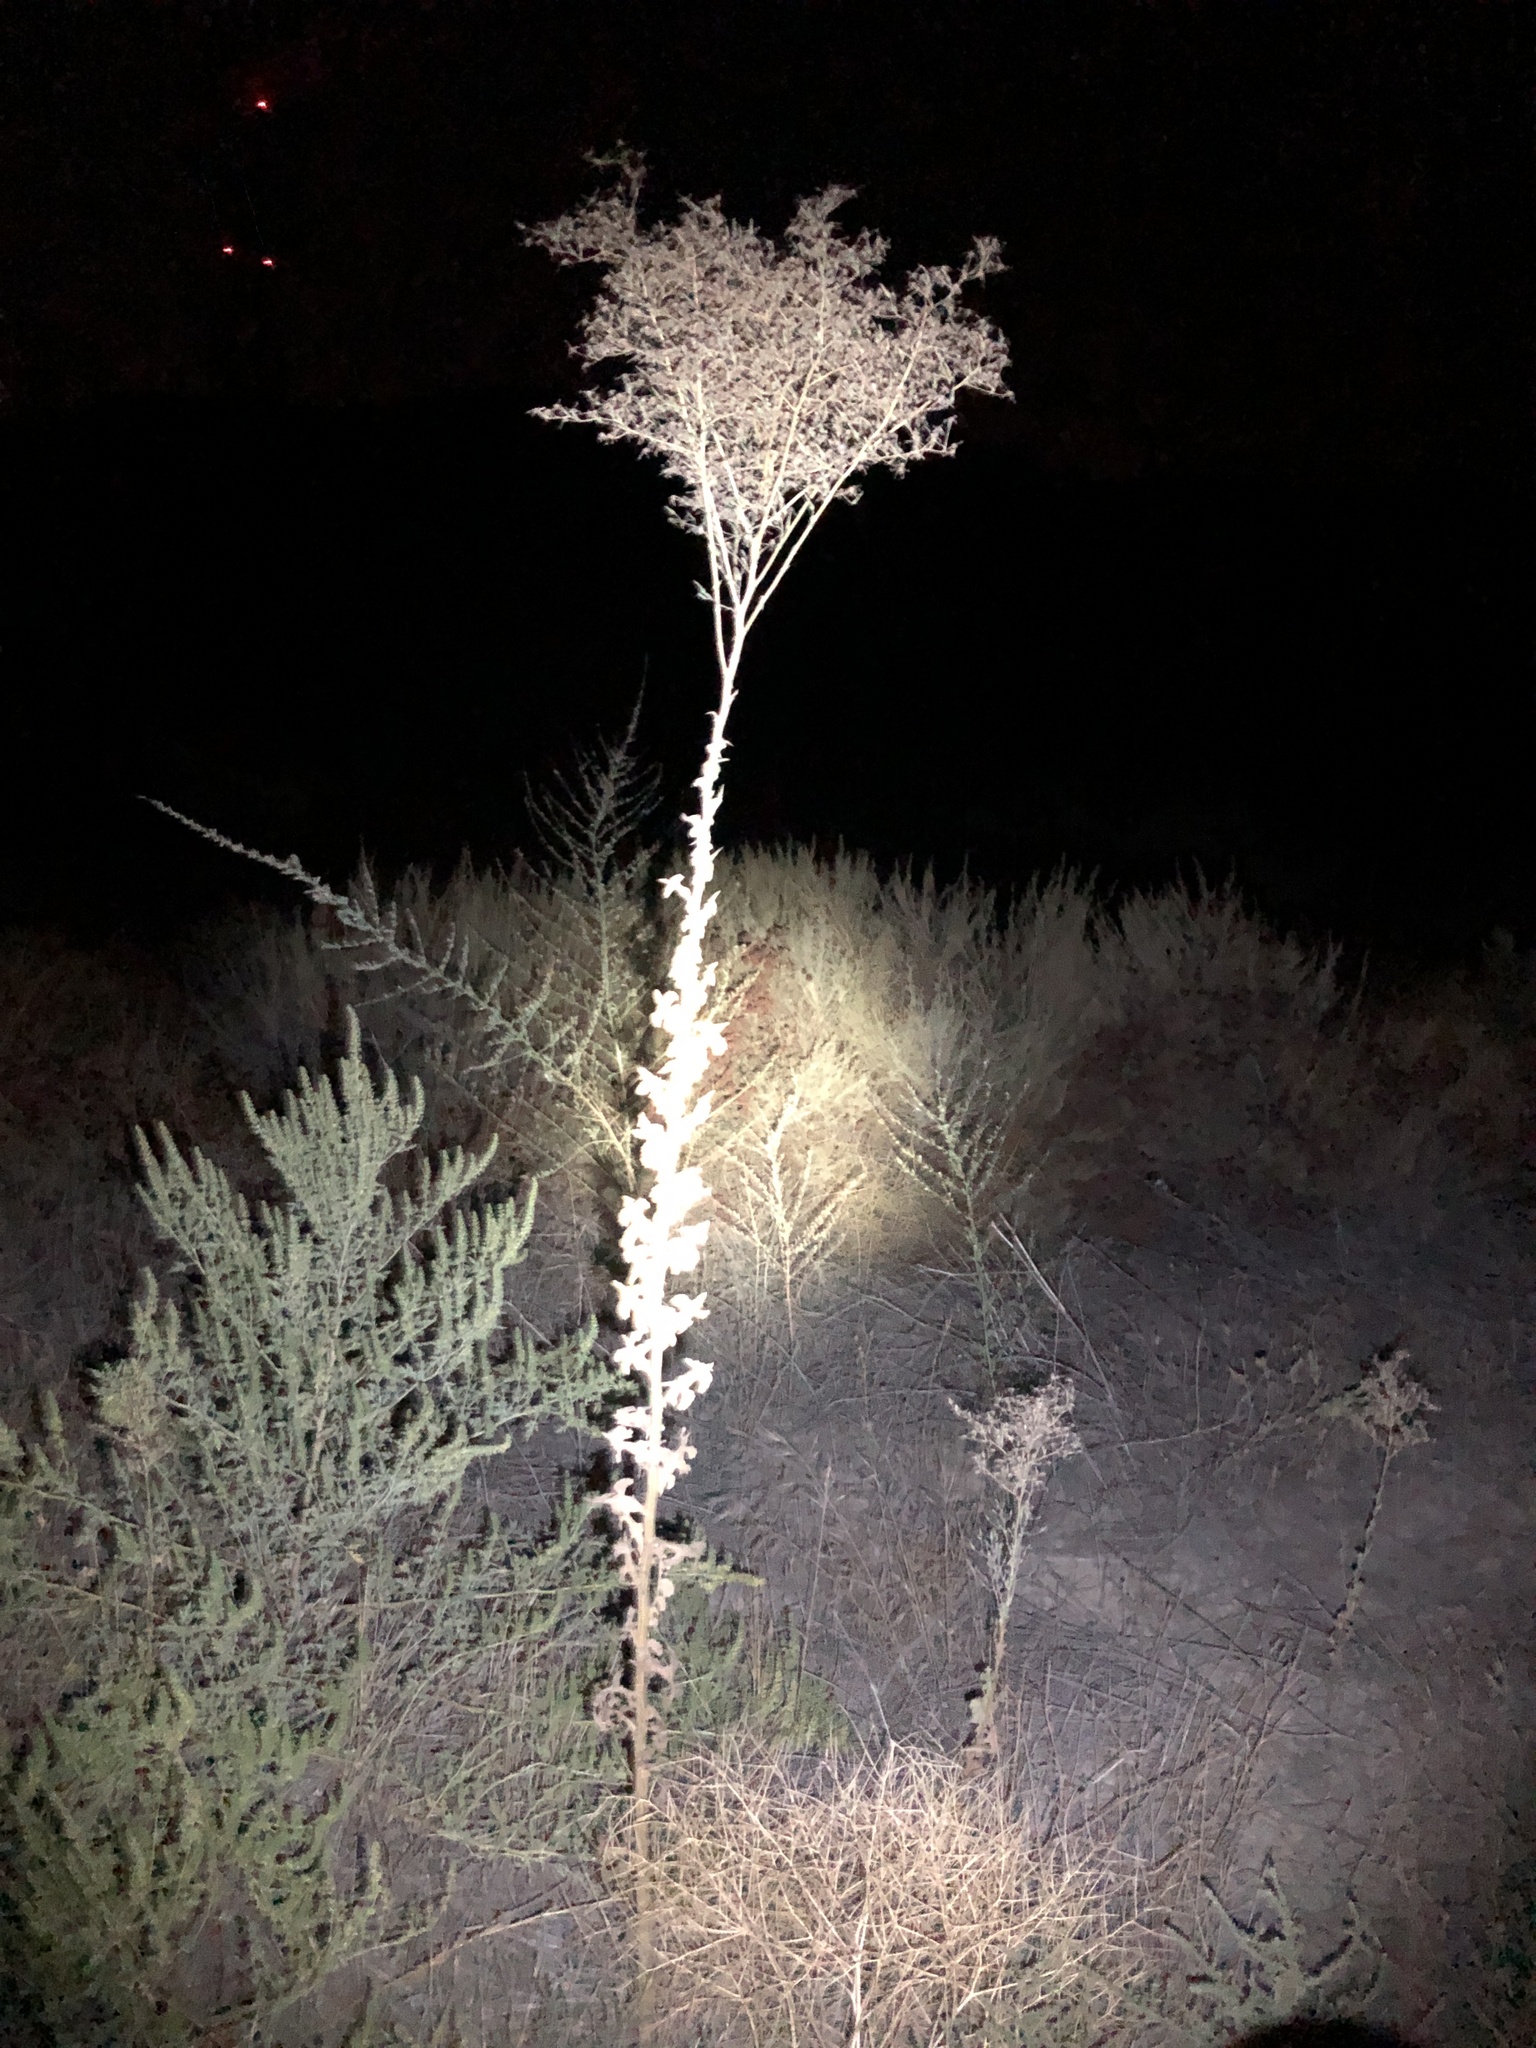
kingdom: Plantae
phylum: Tracheophyta
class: Magnoliopsida
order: Asterales
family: Asteraceae
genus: Lactuca
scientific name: Lactuca serriola
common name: Prickly lettuce
